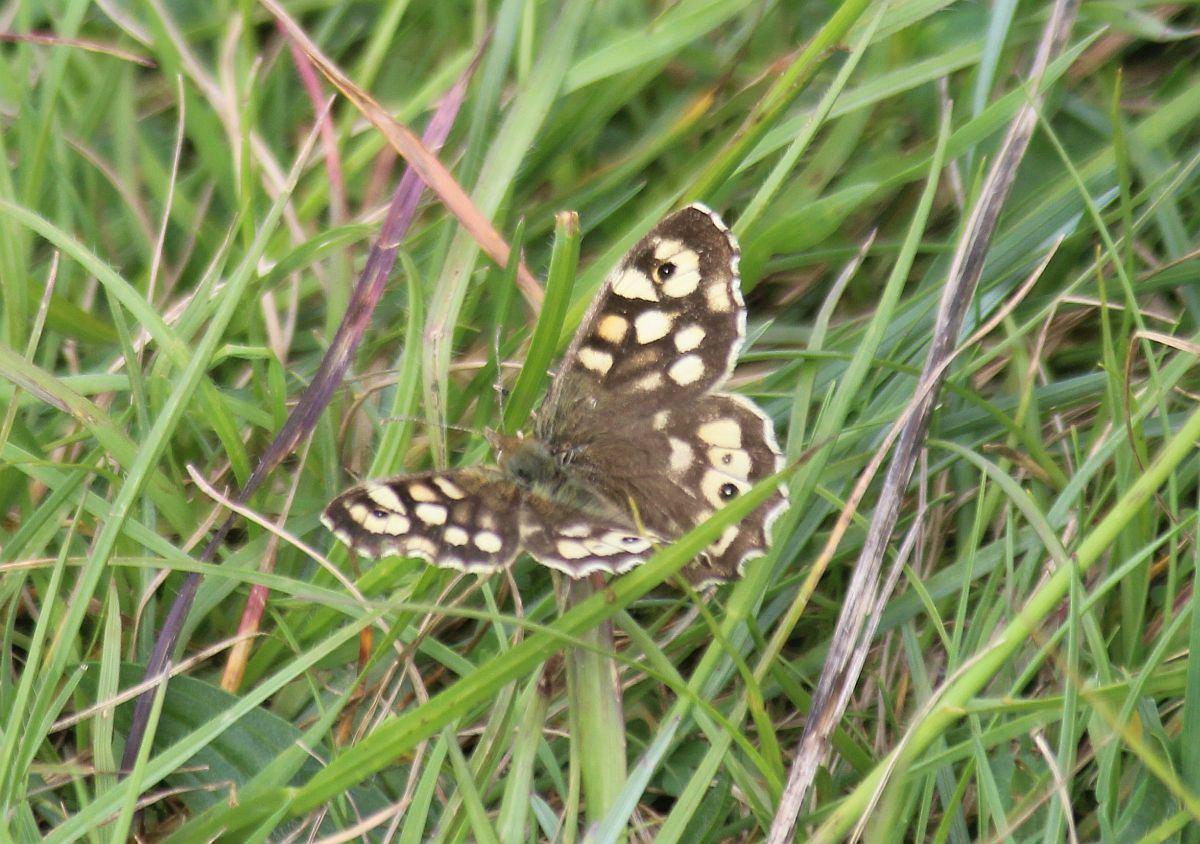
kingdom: Animalia
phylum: Arthropoda
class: Insecta
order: Lepidoptera
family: Nymphalidae
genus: Pararge
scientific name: Pararge aegeria
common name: Speckled wood
